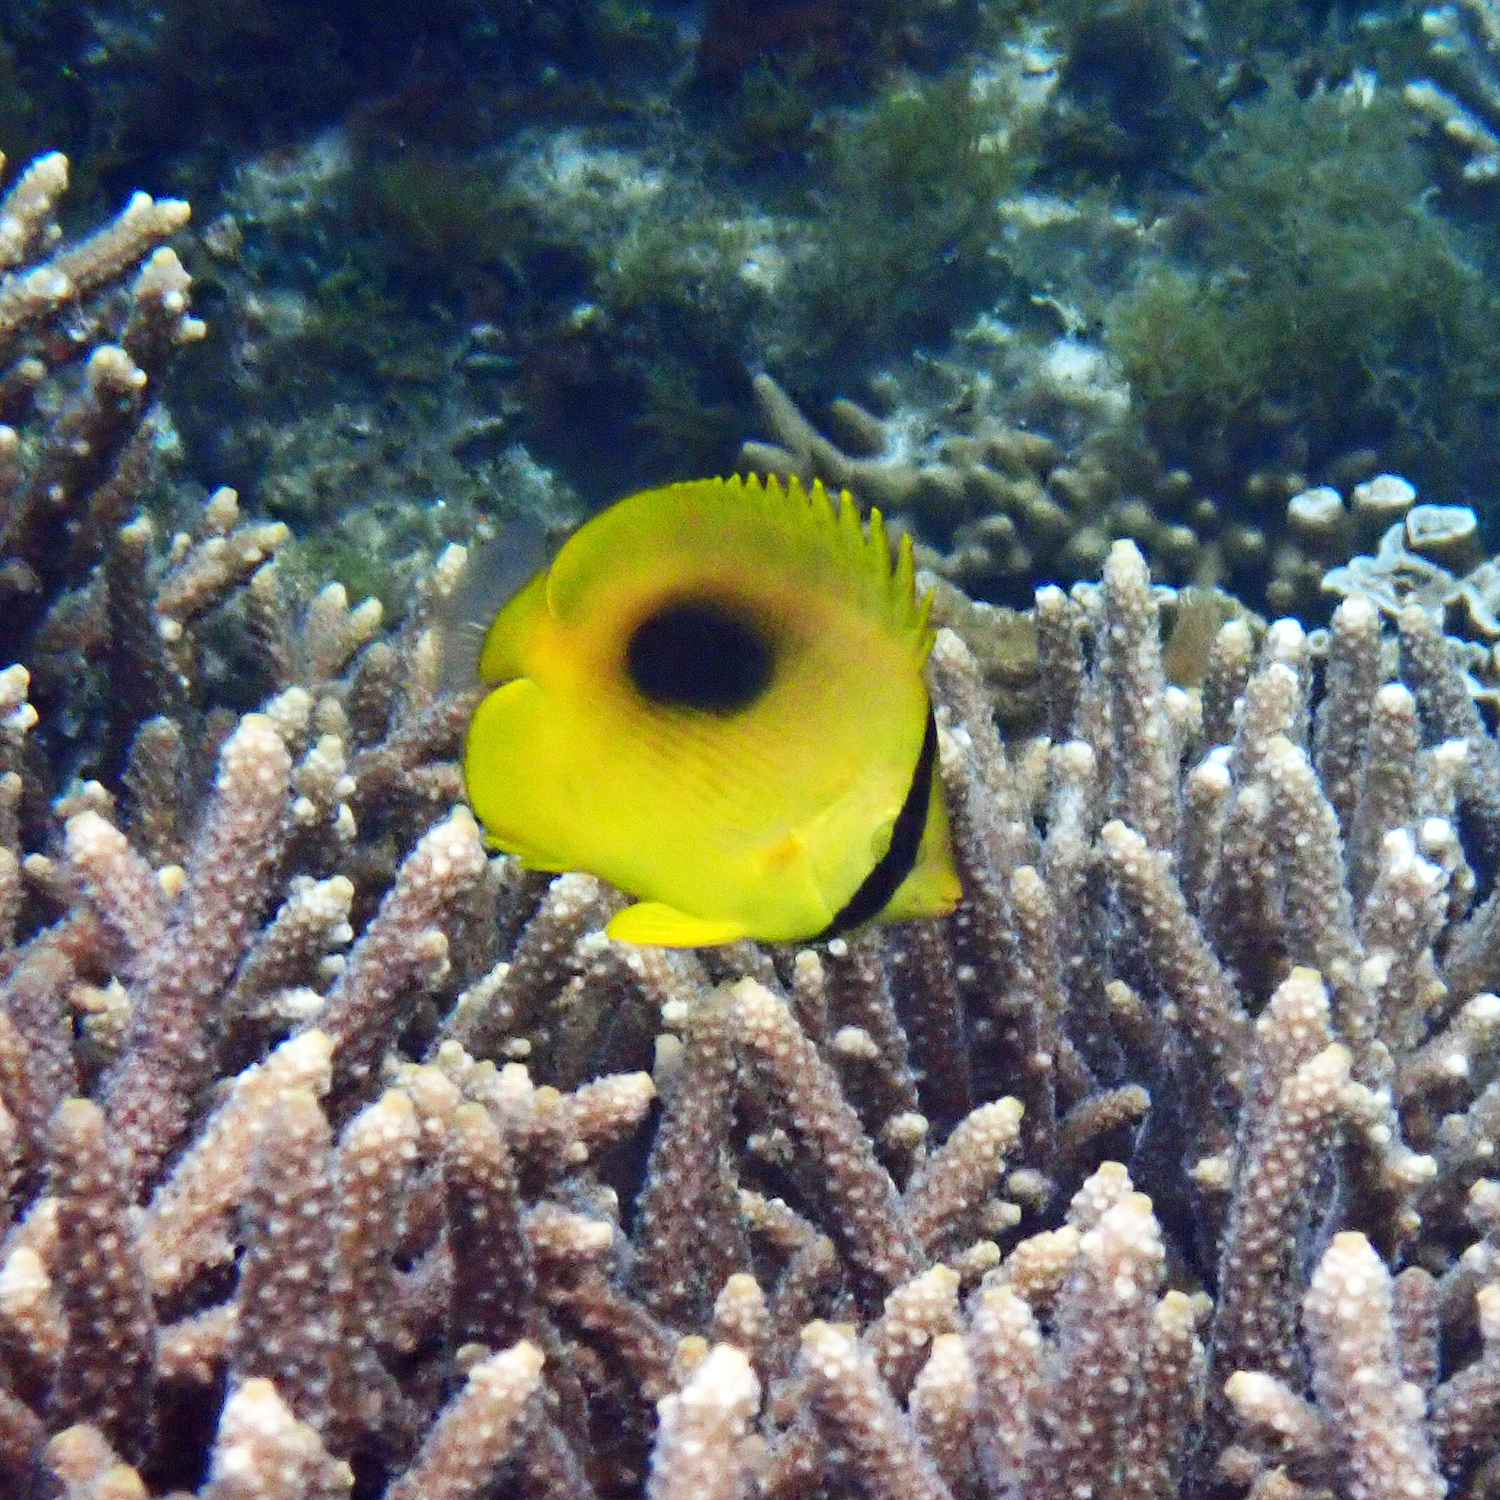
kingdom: Animalia
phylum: Chordata
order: Perciformes
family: Chaetodontidae
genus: Chaetodon
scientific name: Chaetodon speculum
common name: Mirror butterflyfish
